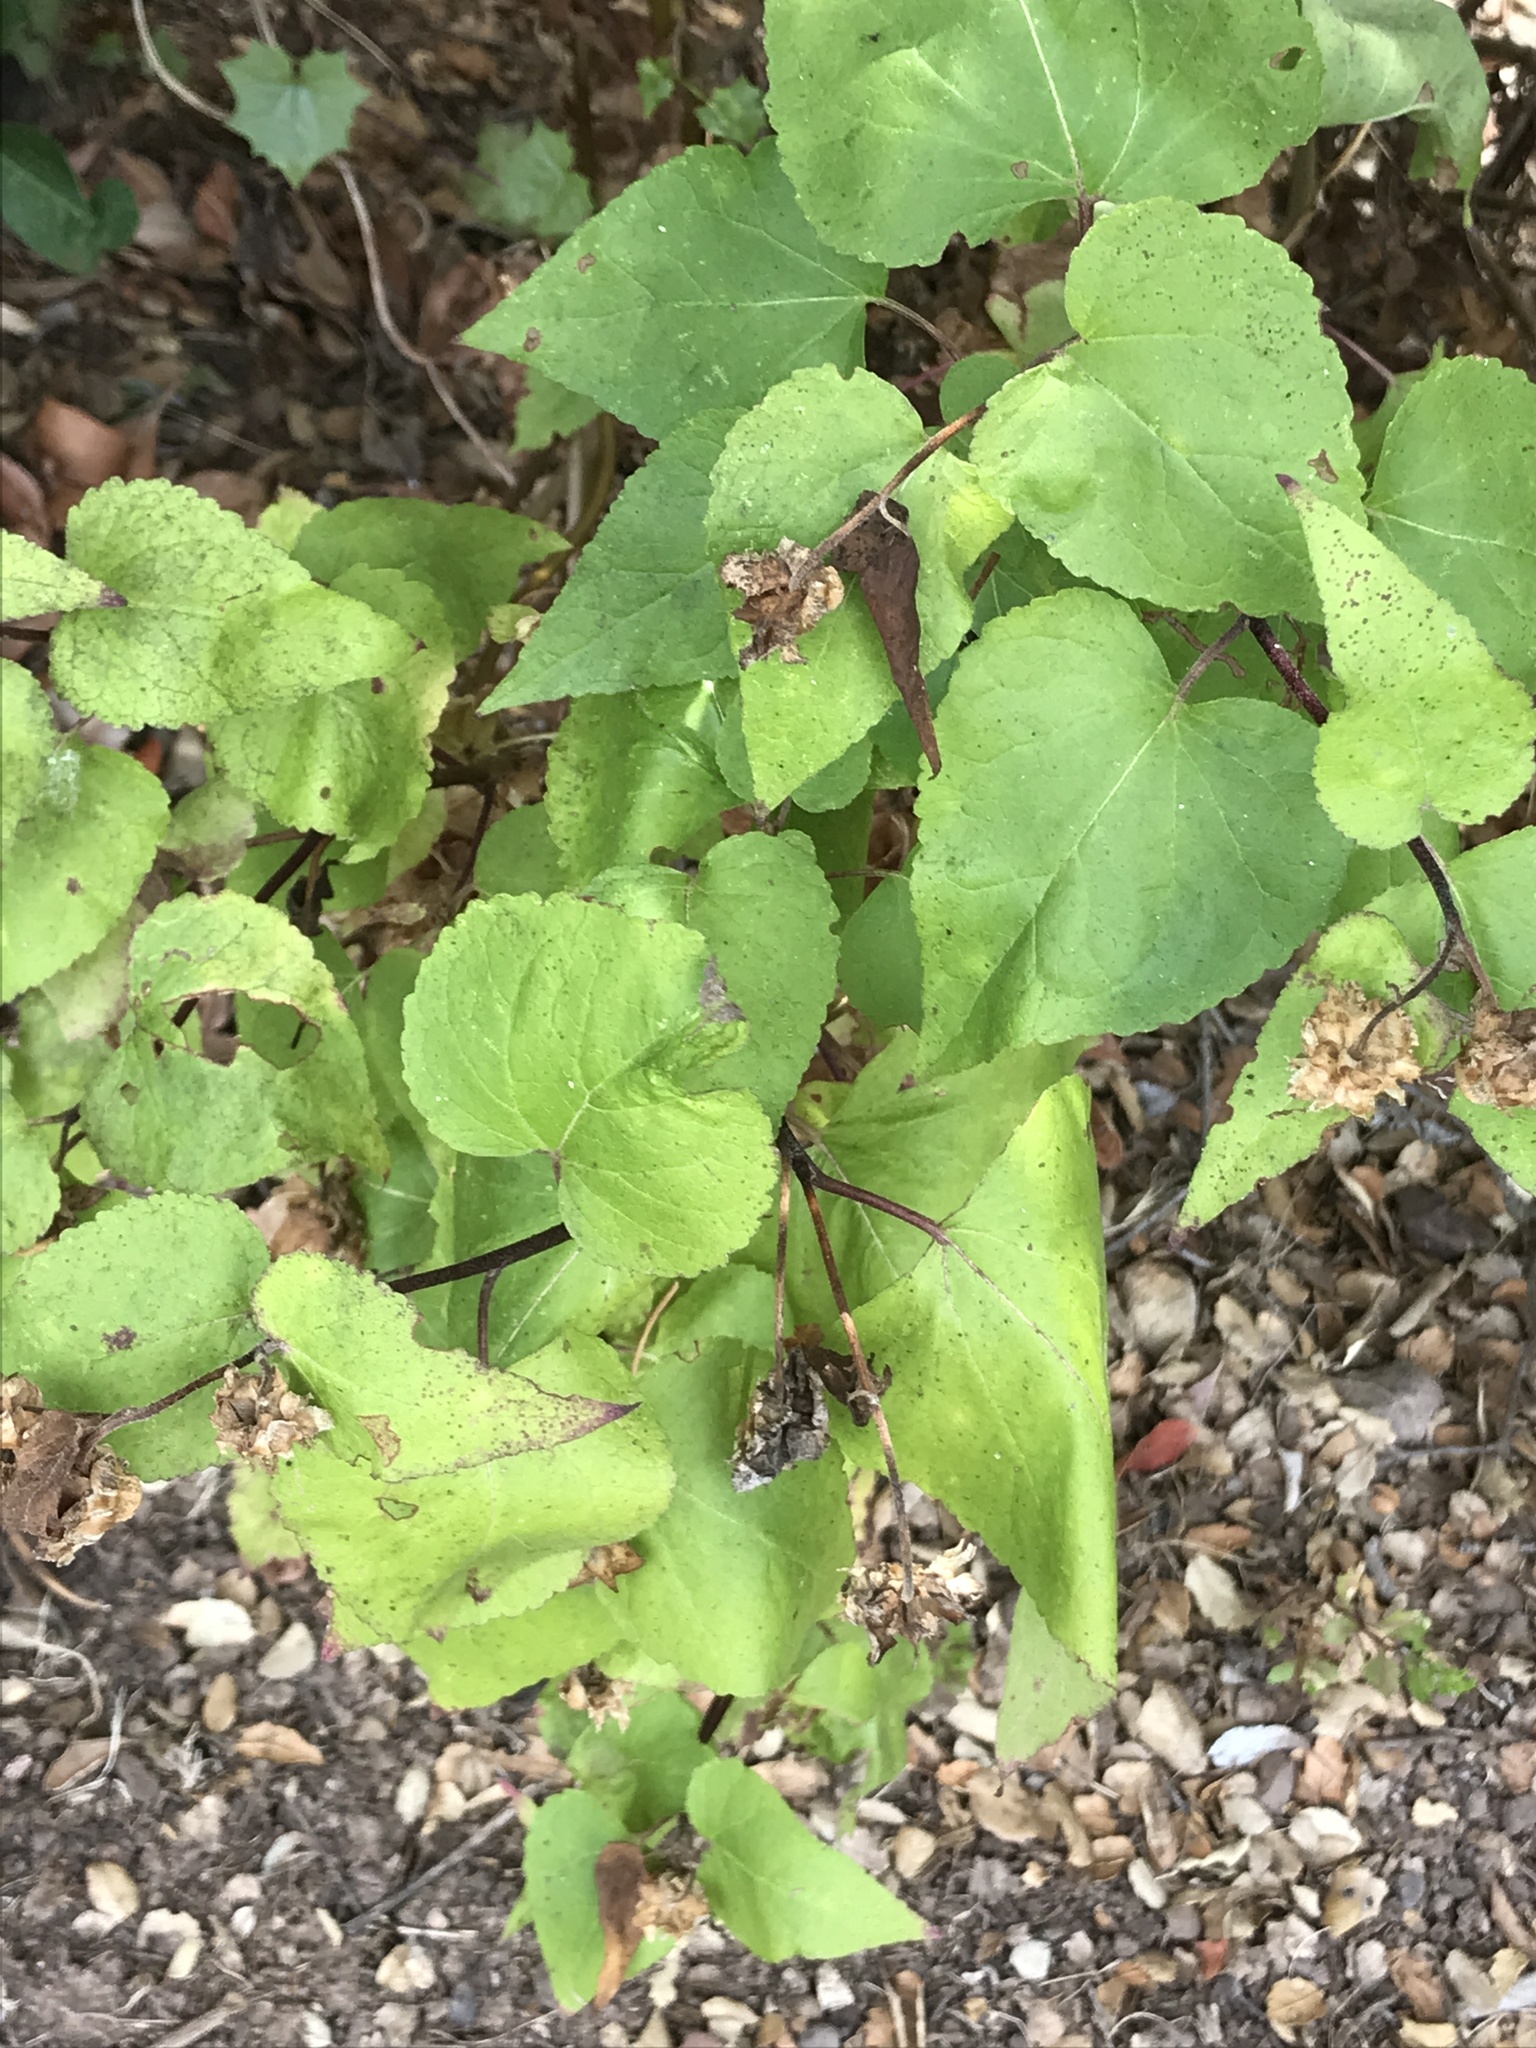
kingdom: Plantae
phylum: Tracheophyta
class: Magnoliopsida
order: Asterales
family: Asteraceae
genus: Venegasia
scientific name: Venegasia carpesioides
